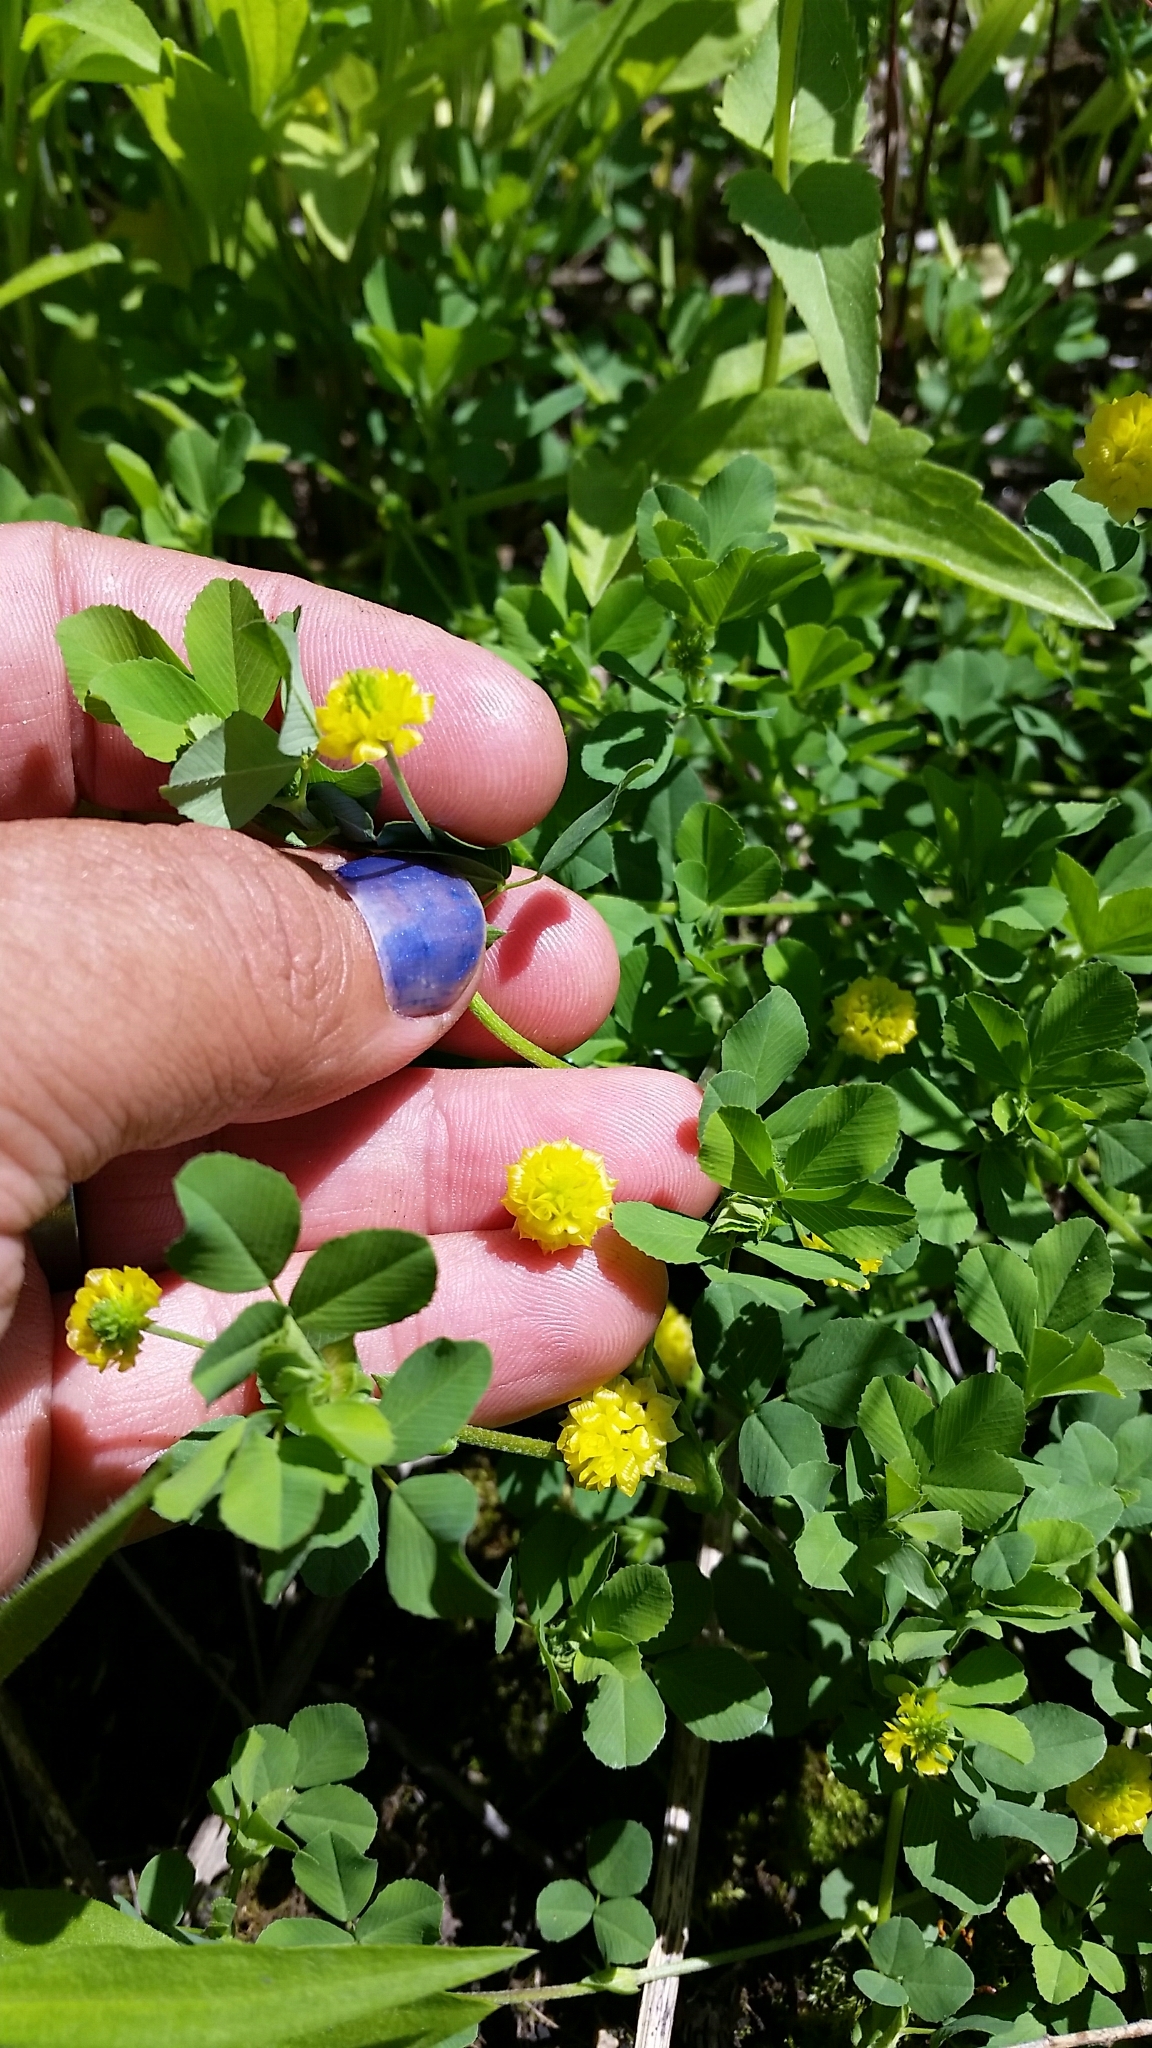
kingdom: Plantae
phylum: Tracheophyta
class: Magnoliopsida
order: Fabales
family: Fabaceae
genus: Trifolium
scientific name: Trifolium campestre
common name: Field clover
